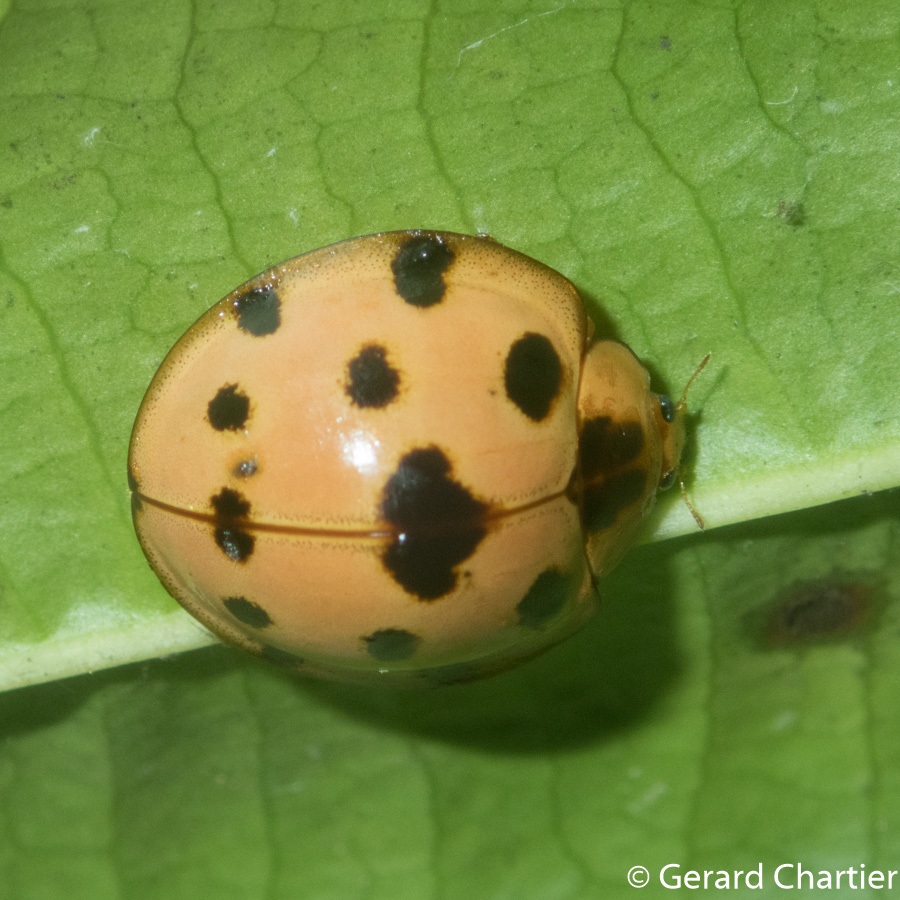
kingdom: Animalia
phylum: Arthropoda
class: Insecta
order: Coleoptera
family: Coccinellidae
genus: Synonycha
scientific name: Synonycha grandis
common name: Lady beetle
